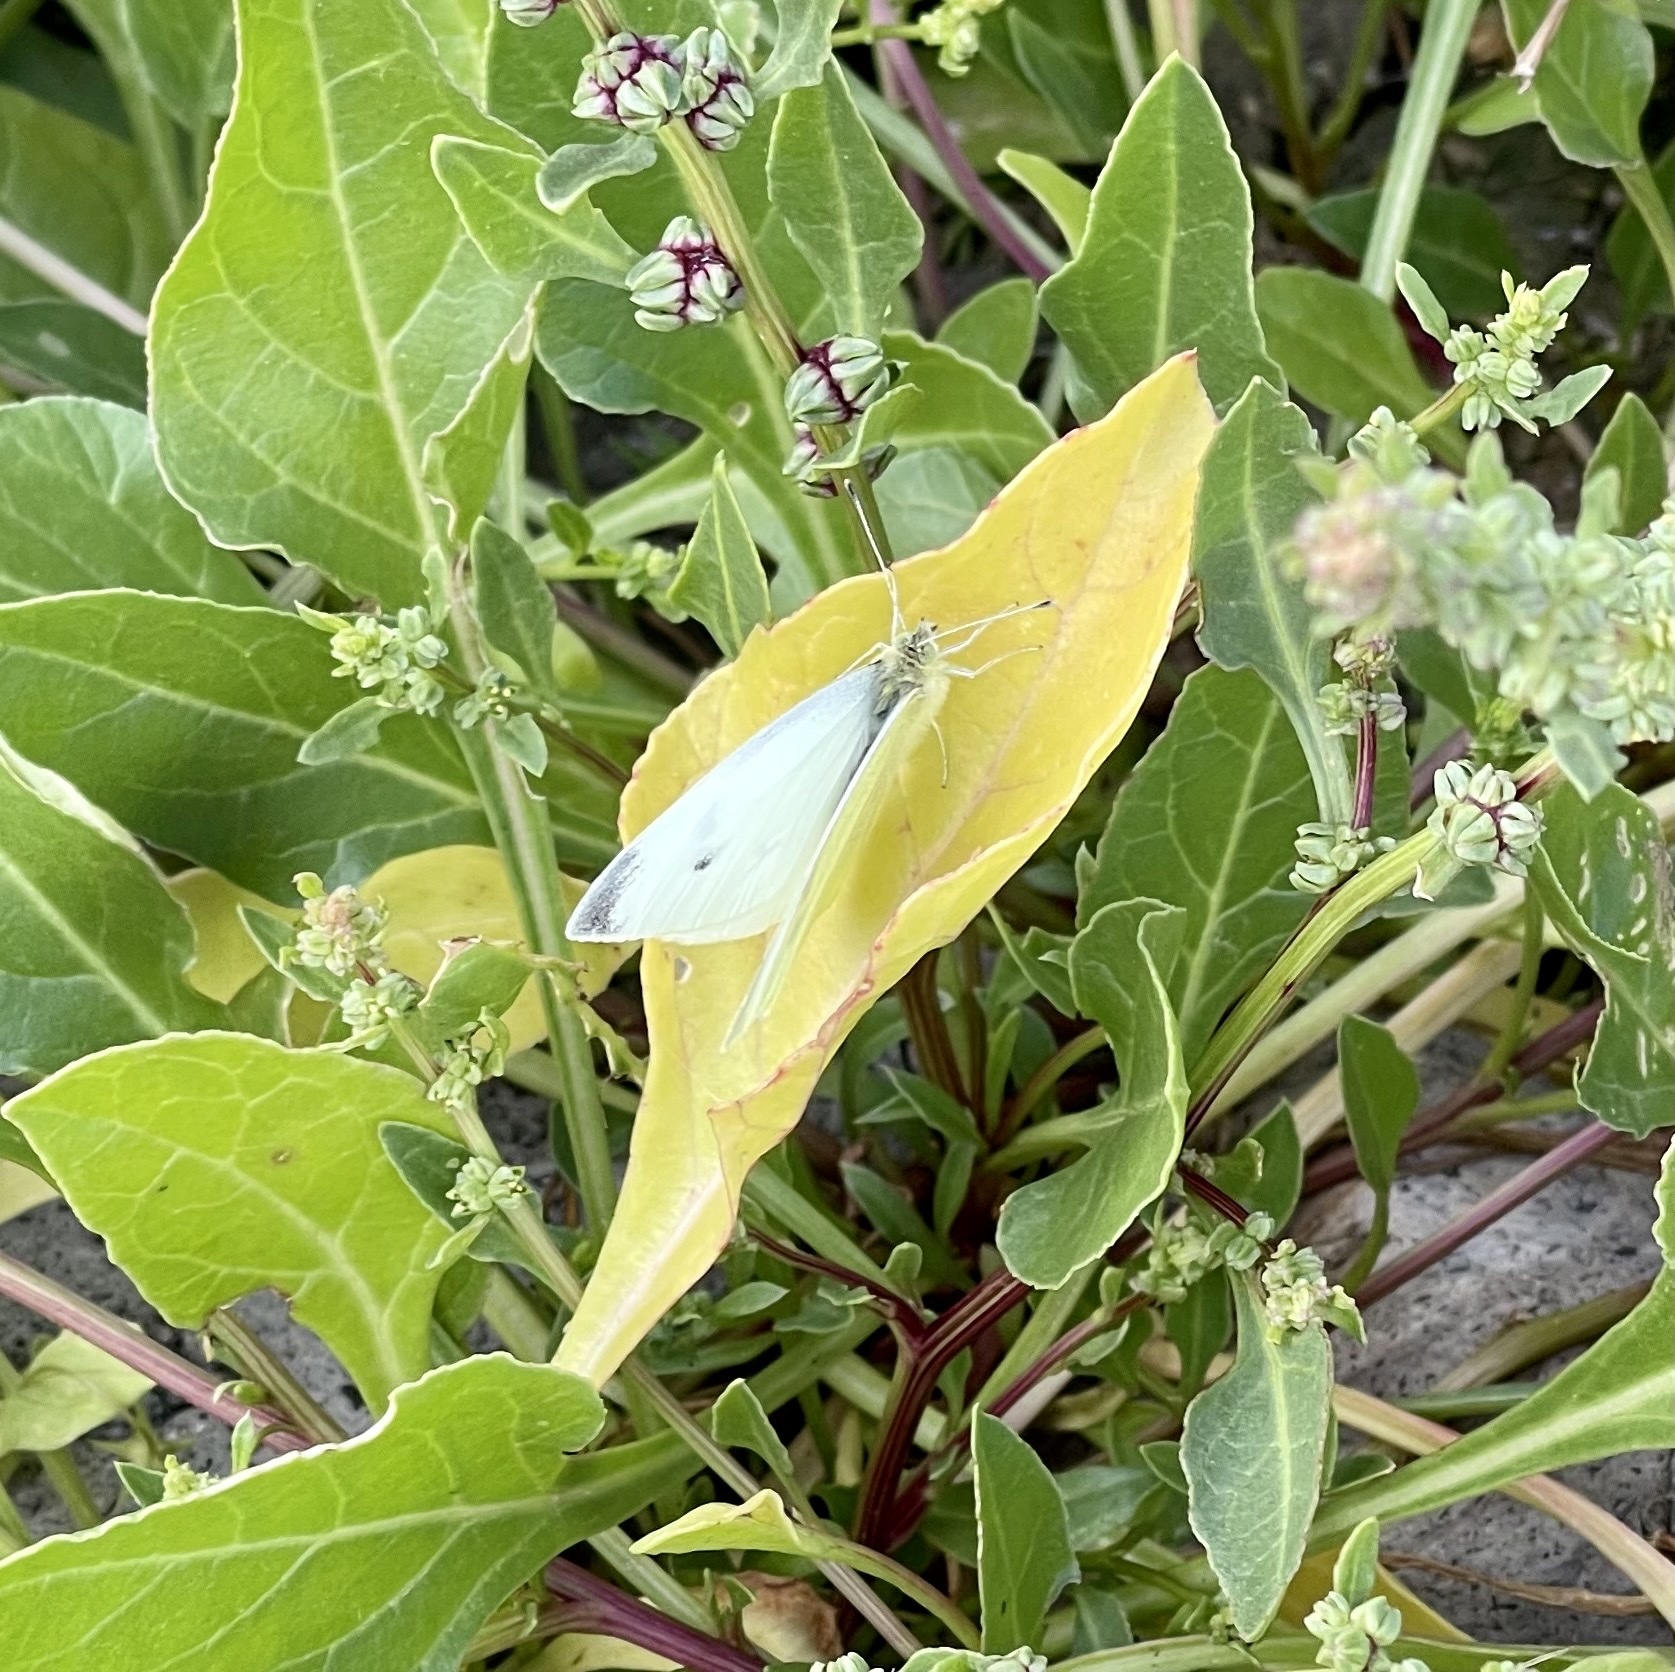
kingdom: Animalia
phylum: Arthropoda
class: Insecta
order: Lepidoptera
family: Pieridae
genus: Pieris
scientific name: Pieris rapae
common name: Small white
